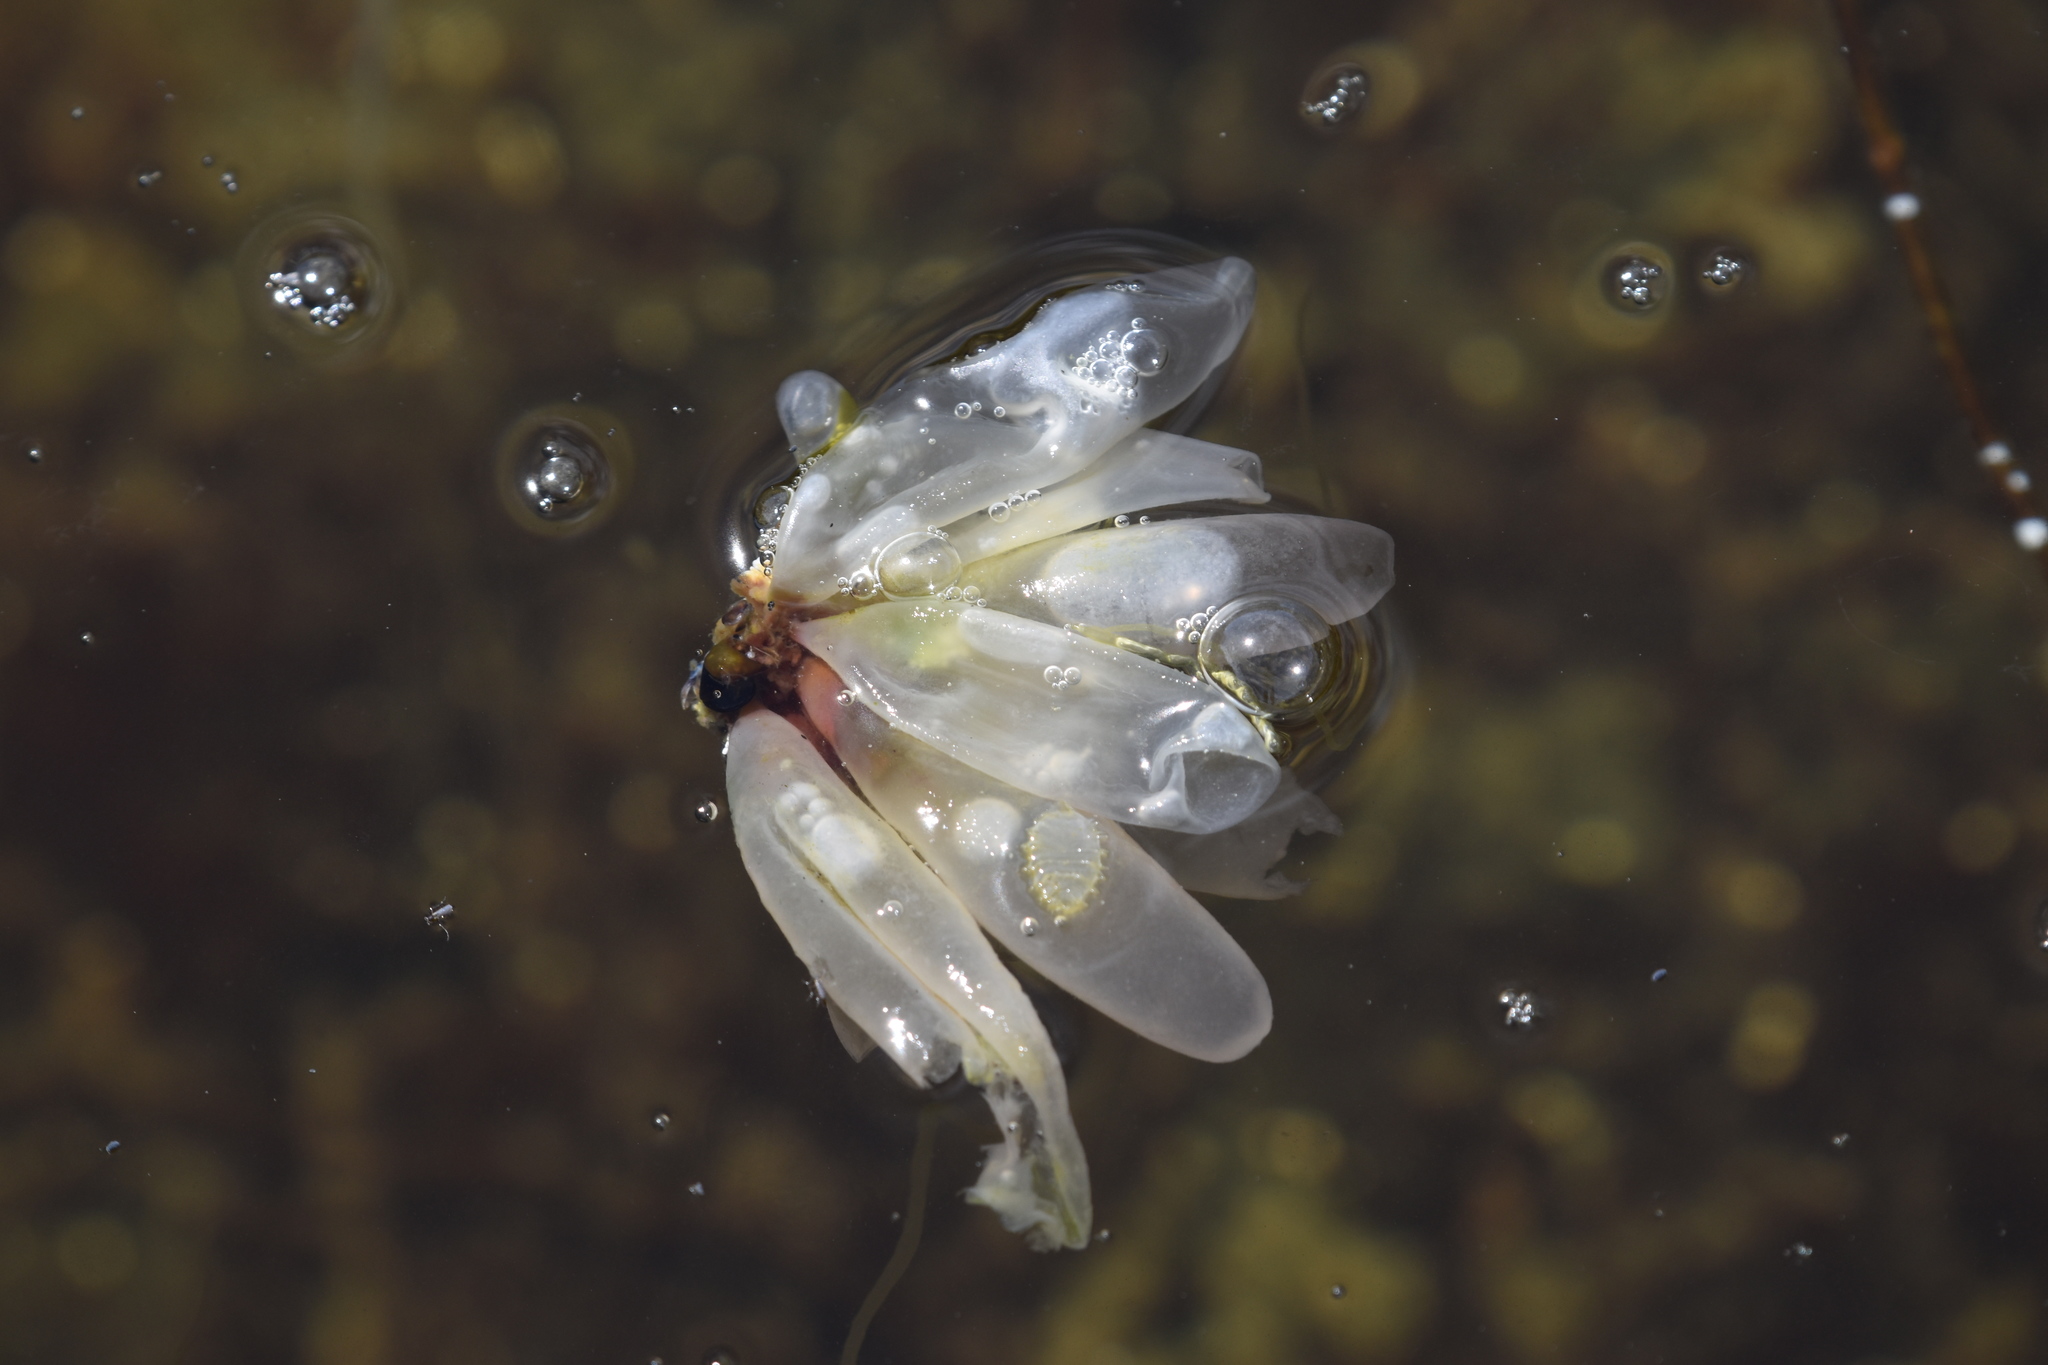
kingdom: Animalia
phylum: Mollusca
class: Cephalopoda
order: Myopsida
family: Loliginidae
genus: Doryteuthis
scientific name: Doryteuthis opalescens
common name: Opalescent inshore squid
